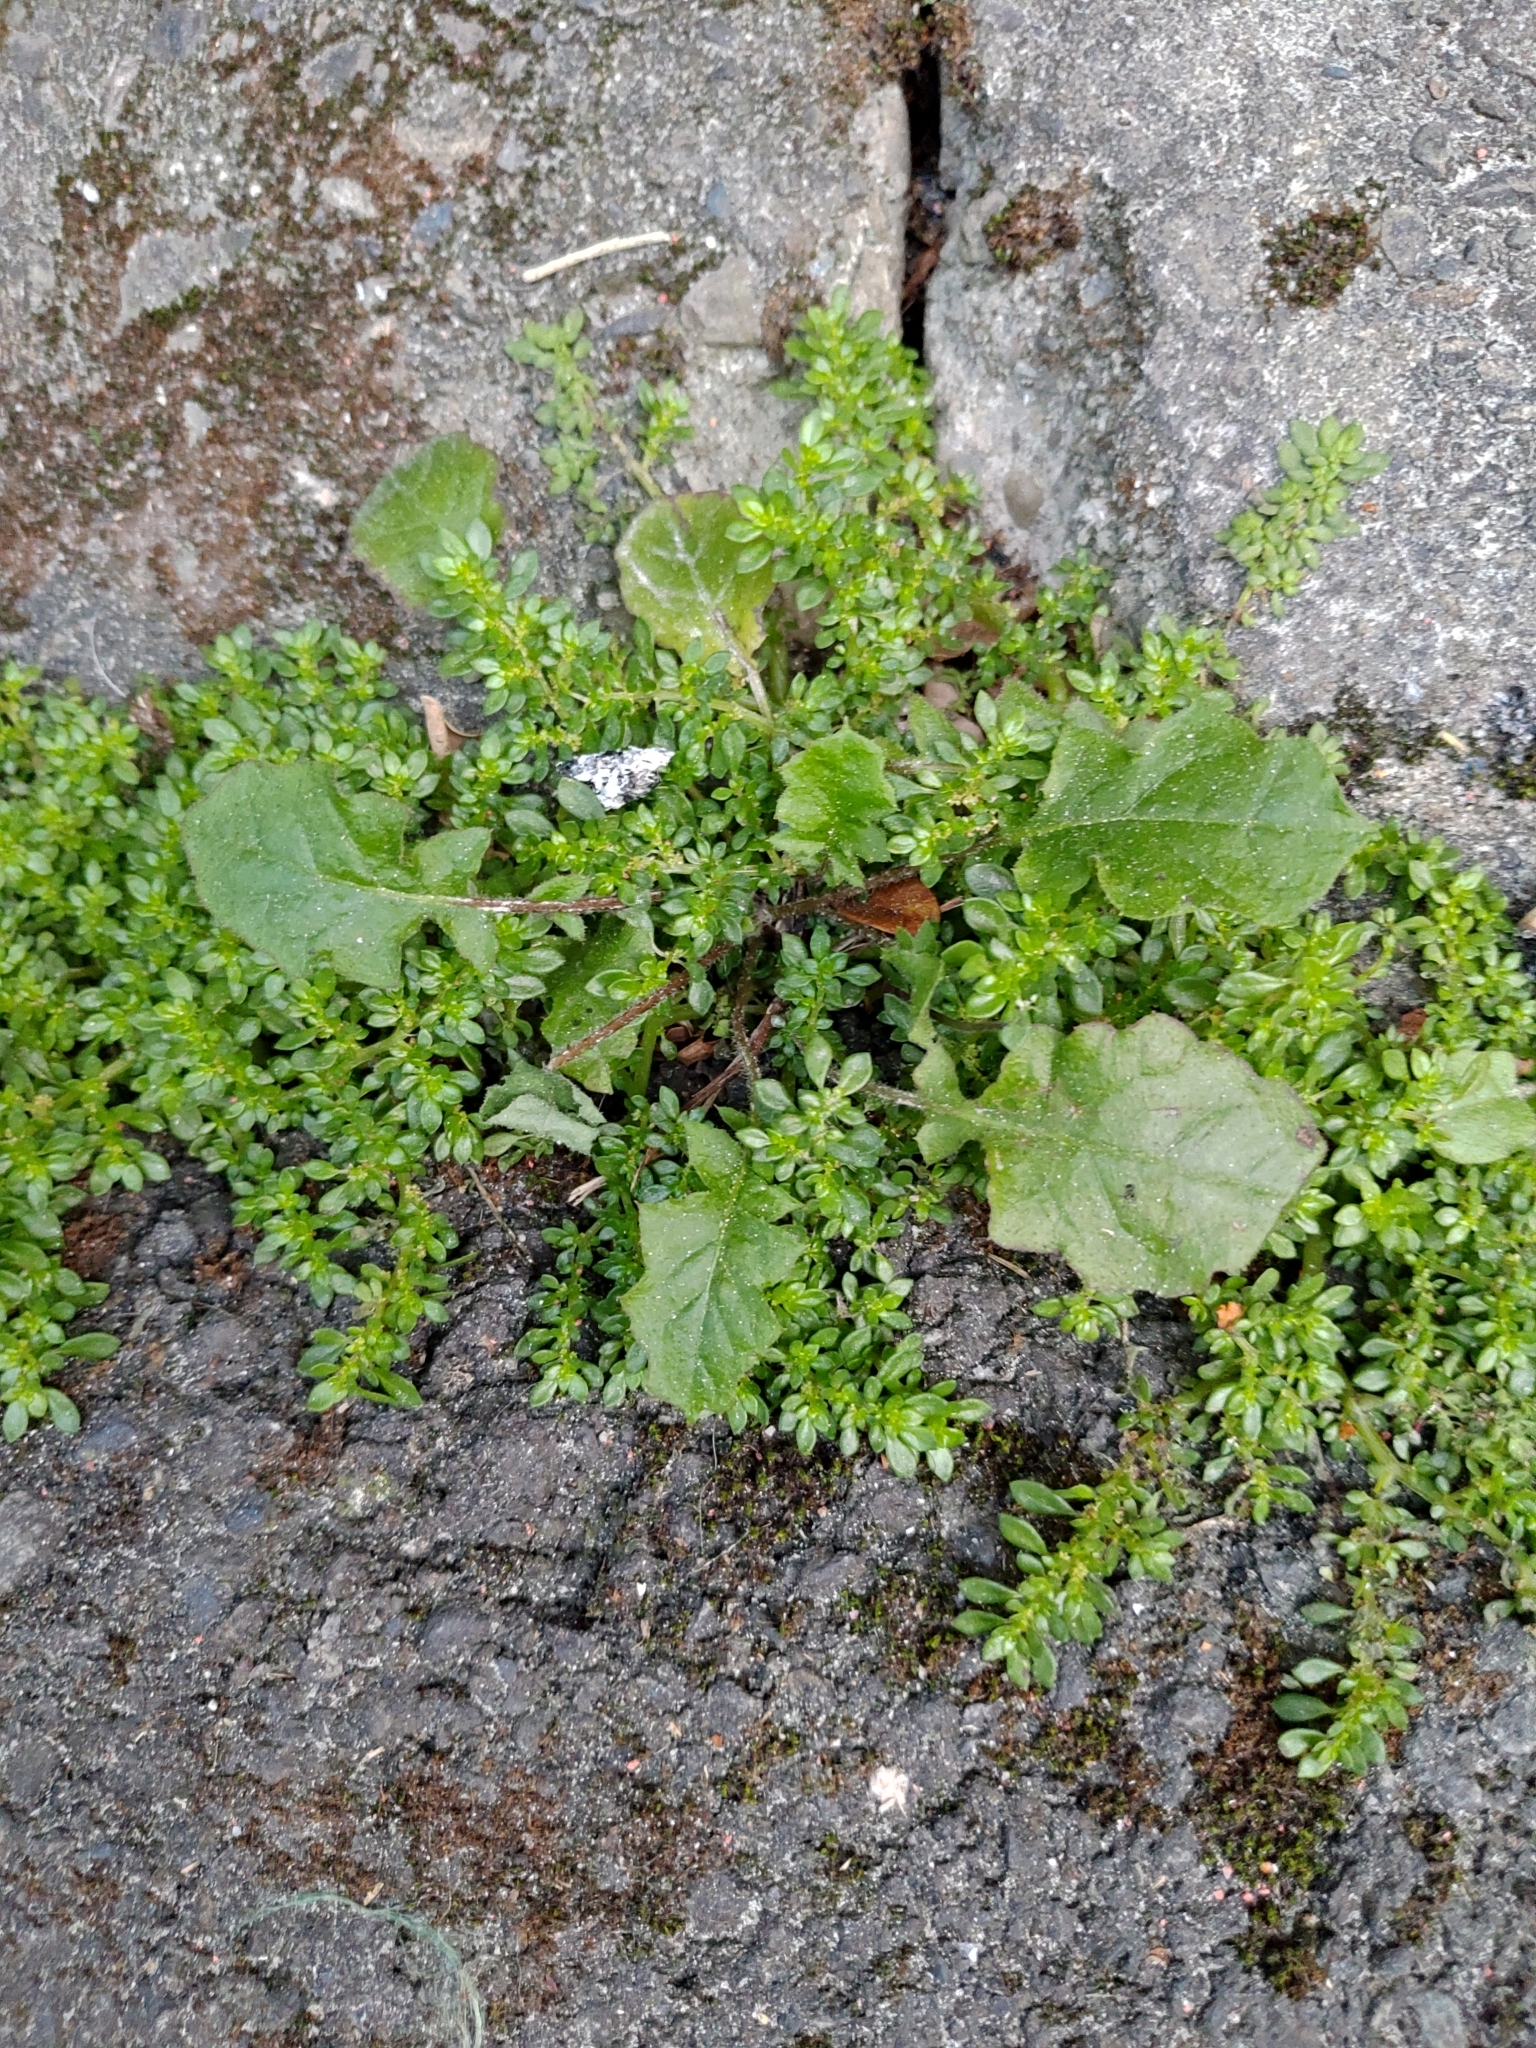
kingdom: Plantae
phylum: Tracheophyta
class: Magnoliopsida
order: Asterales
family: Asteraceae
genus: Youngia
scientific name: Youngia japonica
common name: Oriental false hawksbeard
